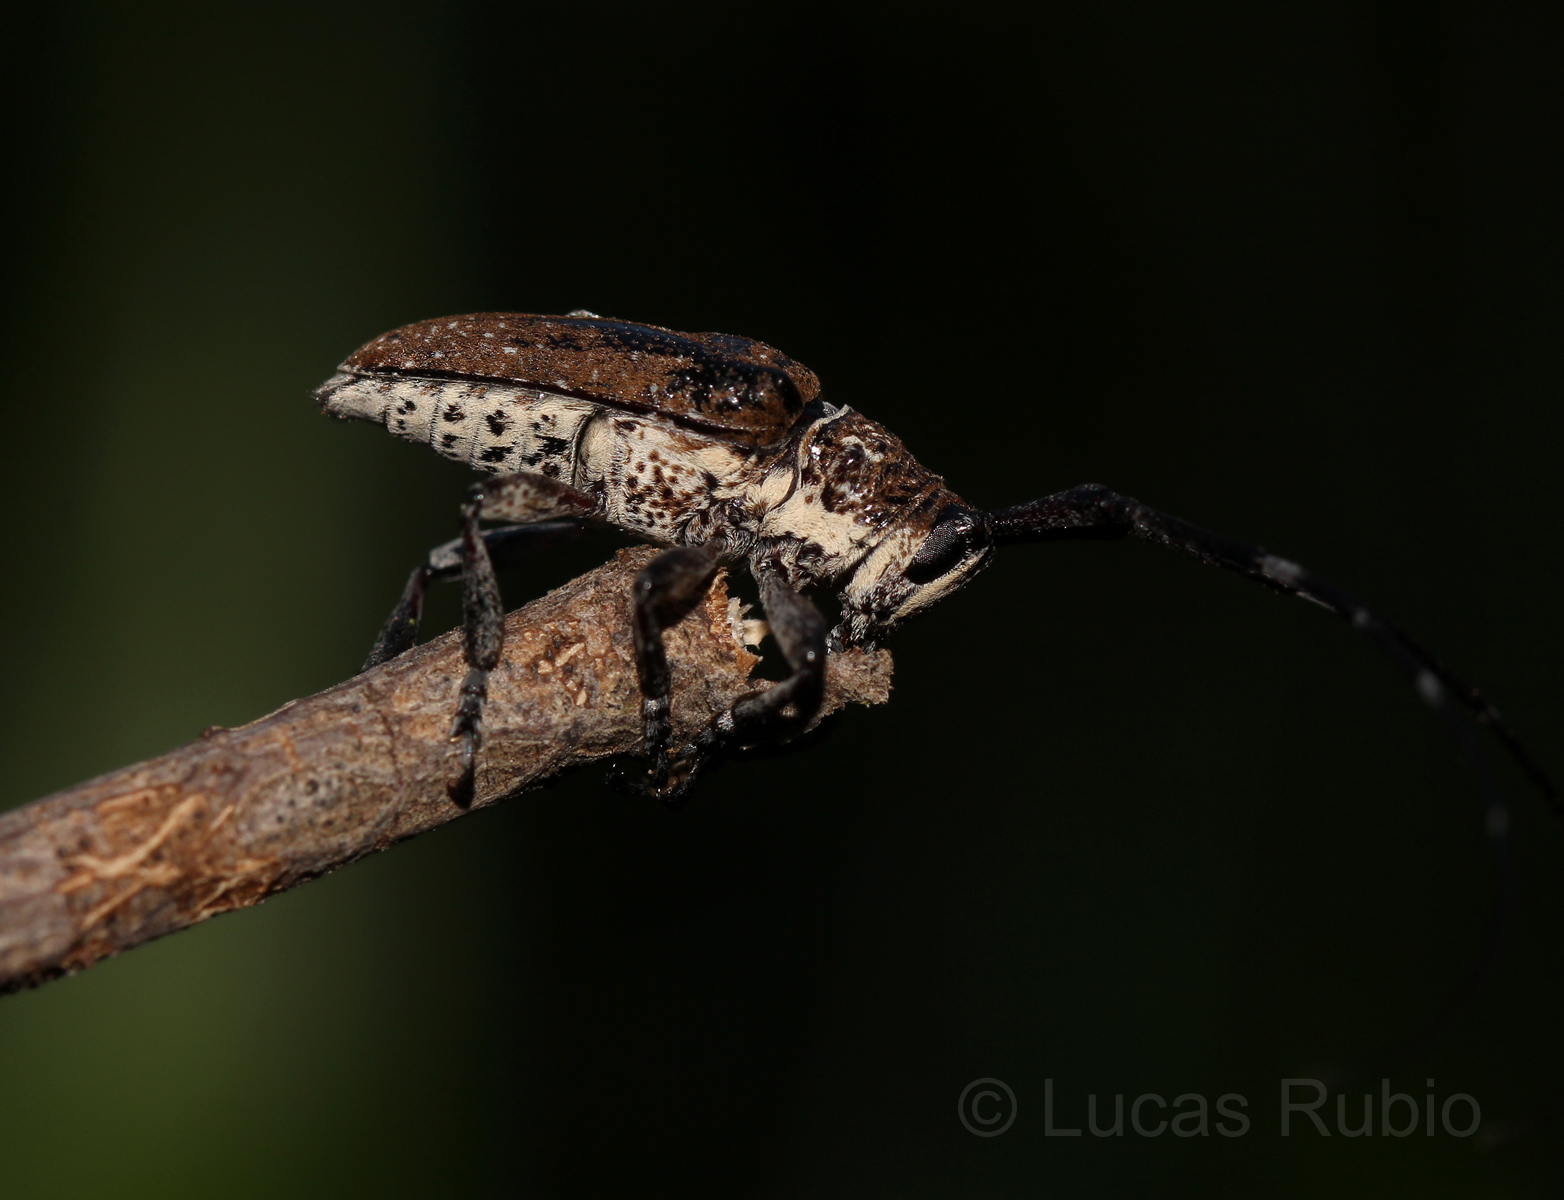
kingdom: Animalia
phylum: Arthropoda
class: Insecta
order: Coleoptera
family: Cerambycidae
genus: Neodillonia
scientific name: Neodillonia albisparsa
